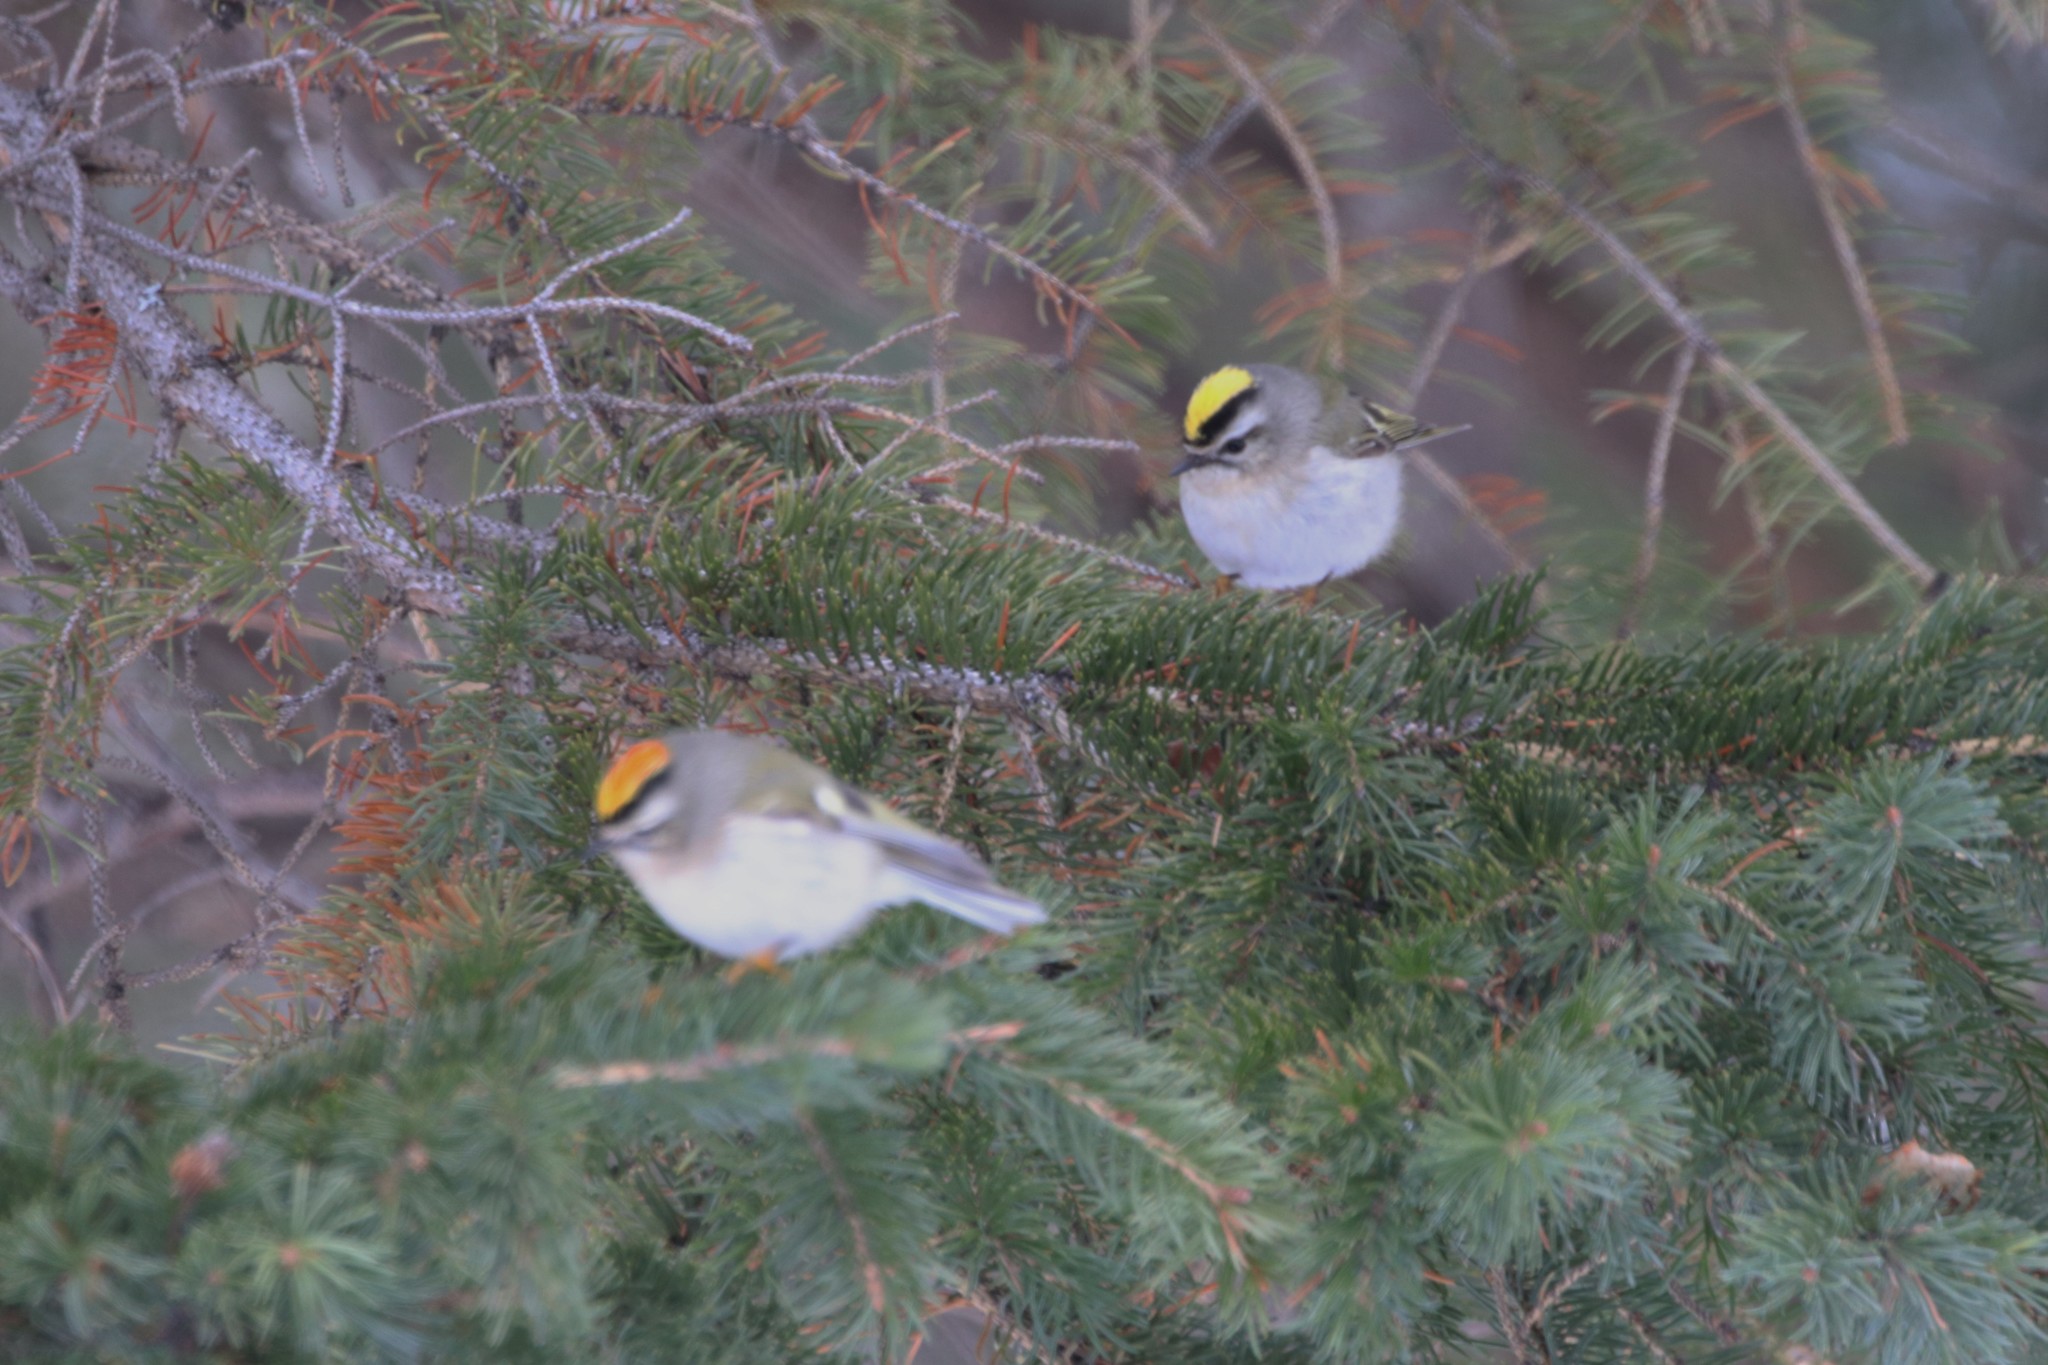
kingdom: Animalia
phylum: Chordata
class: Aves
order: Passeriformes
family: Regulidae
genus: Regulus
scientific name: Regulus satrapa
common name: Golden-crowned kinglet
